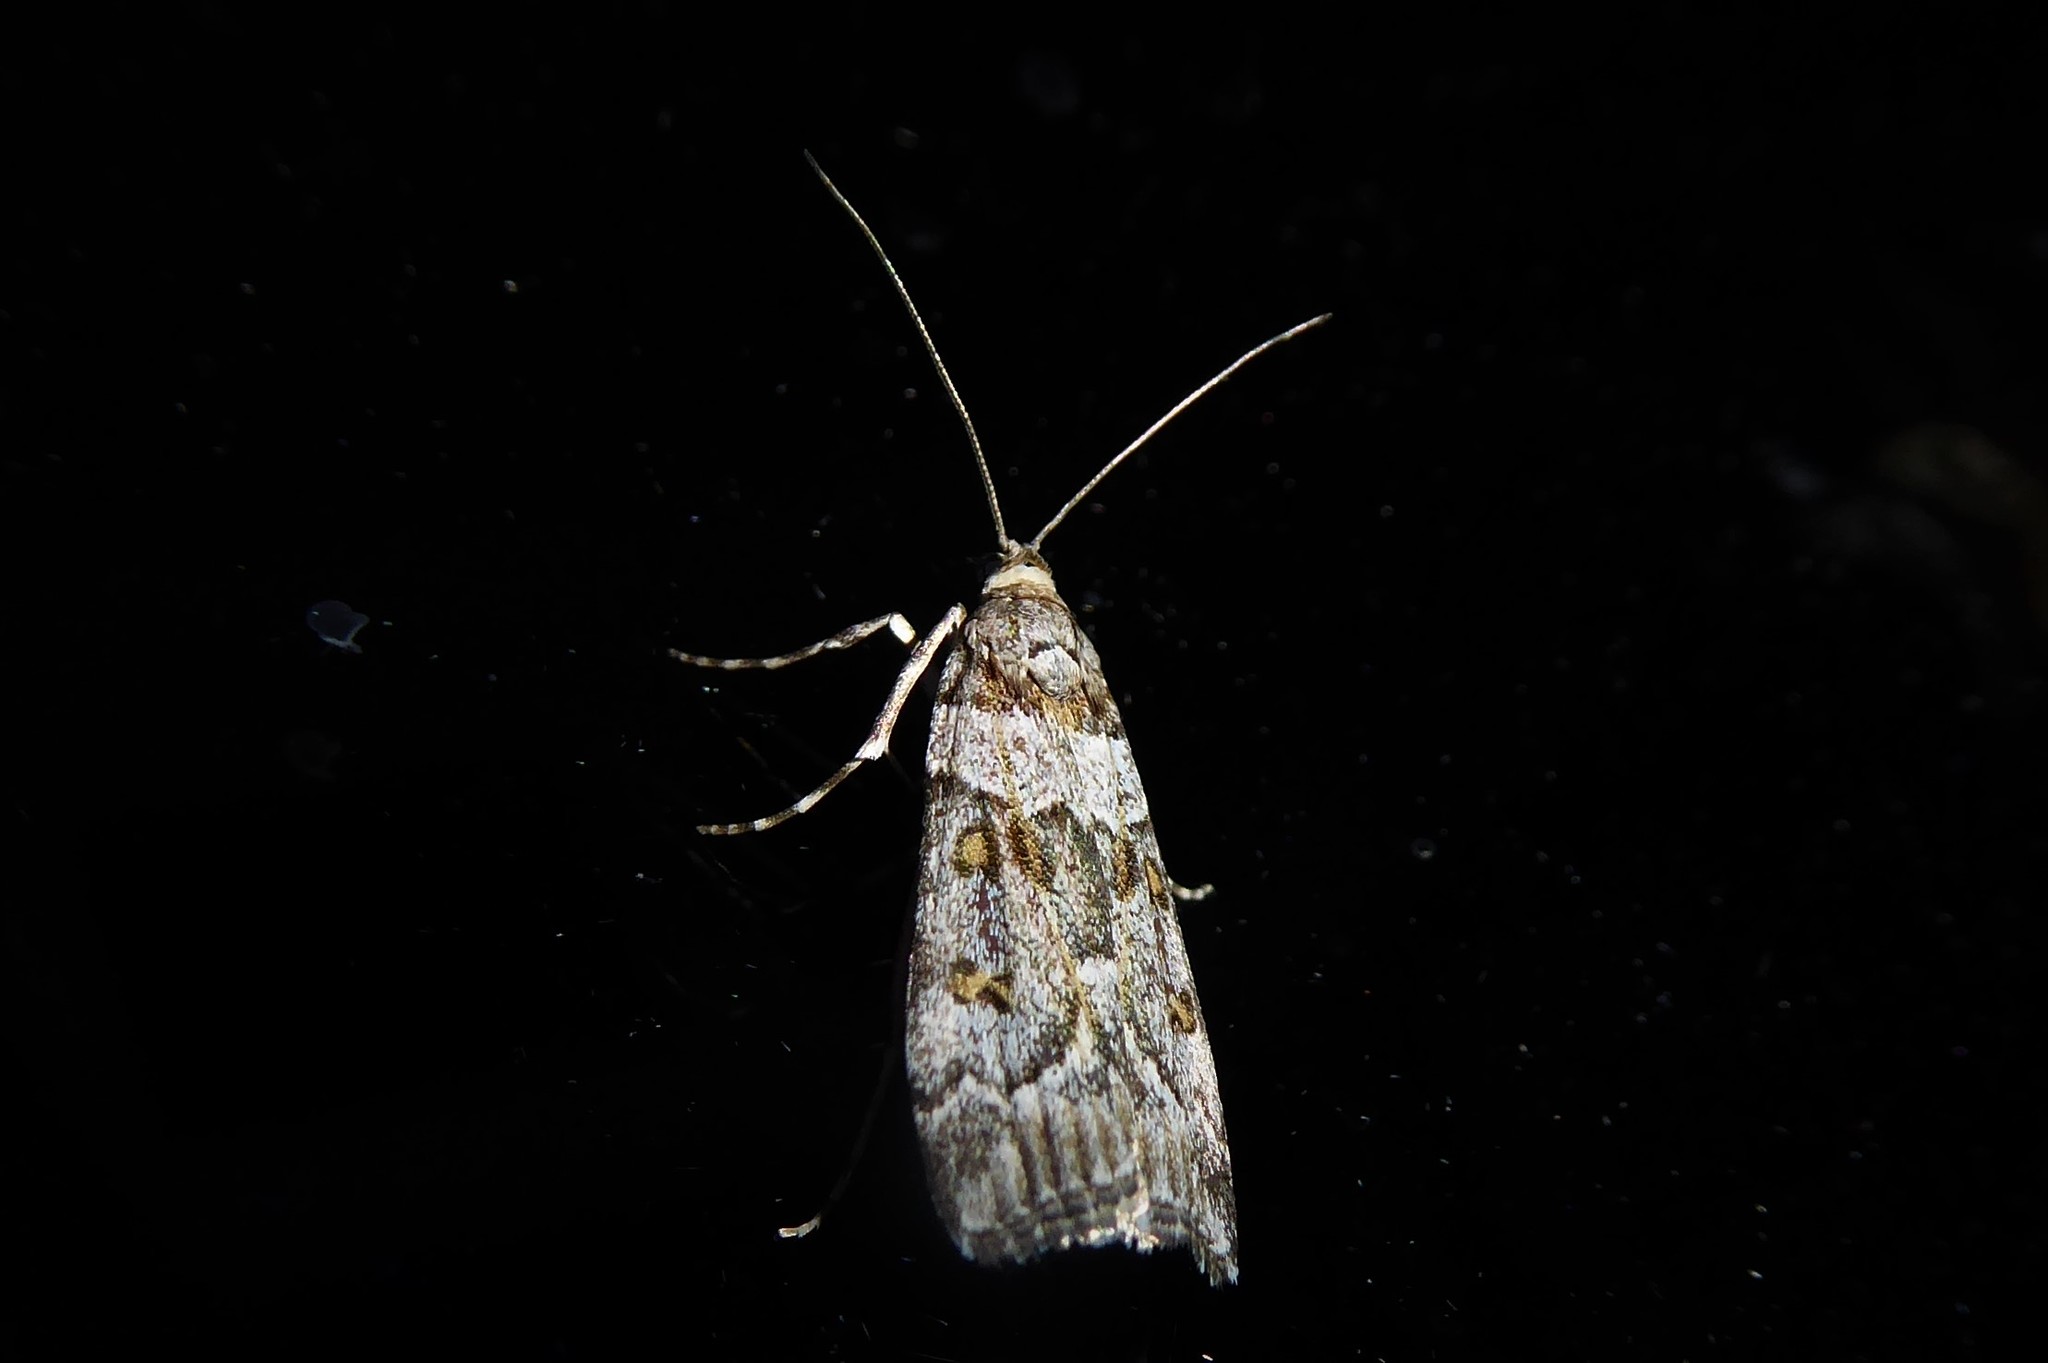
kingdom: Animalia
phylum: Arthropoda
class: Insecta
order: Lepidoptera
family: Crambidae
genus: Eudonia
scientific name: Eudonia diphtheralis
